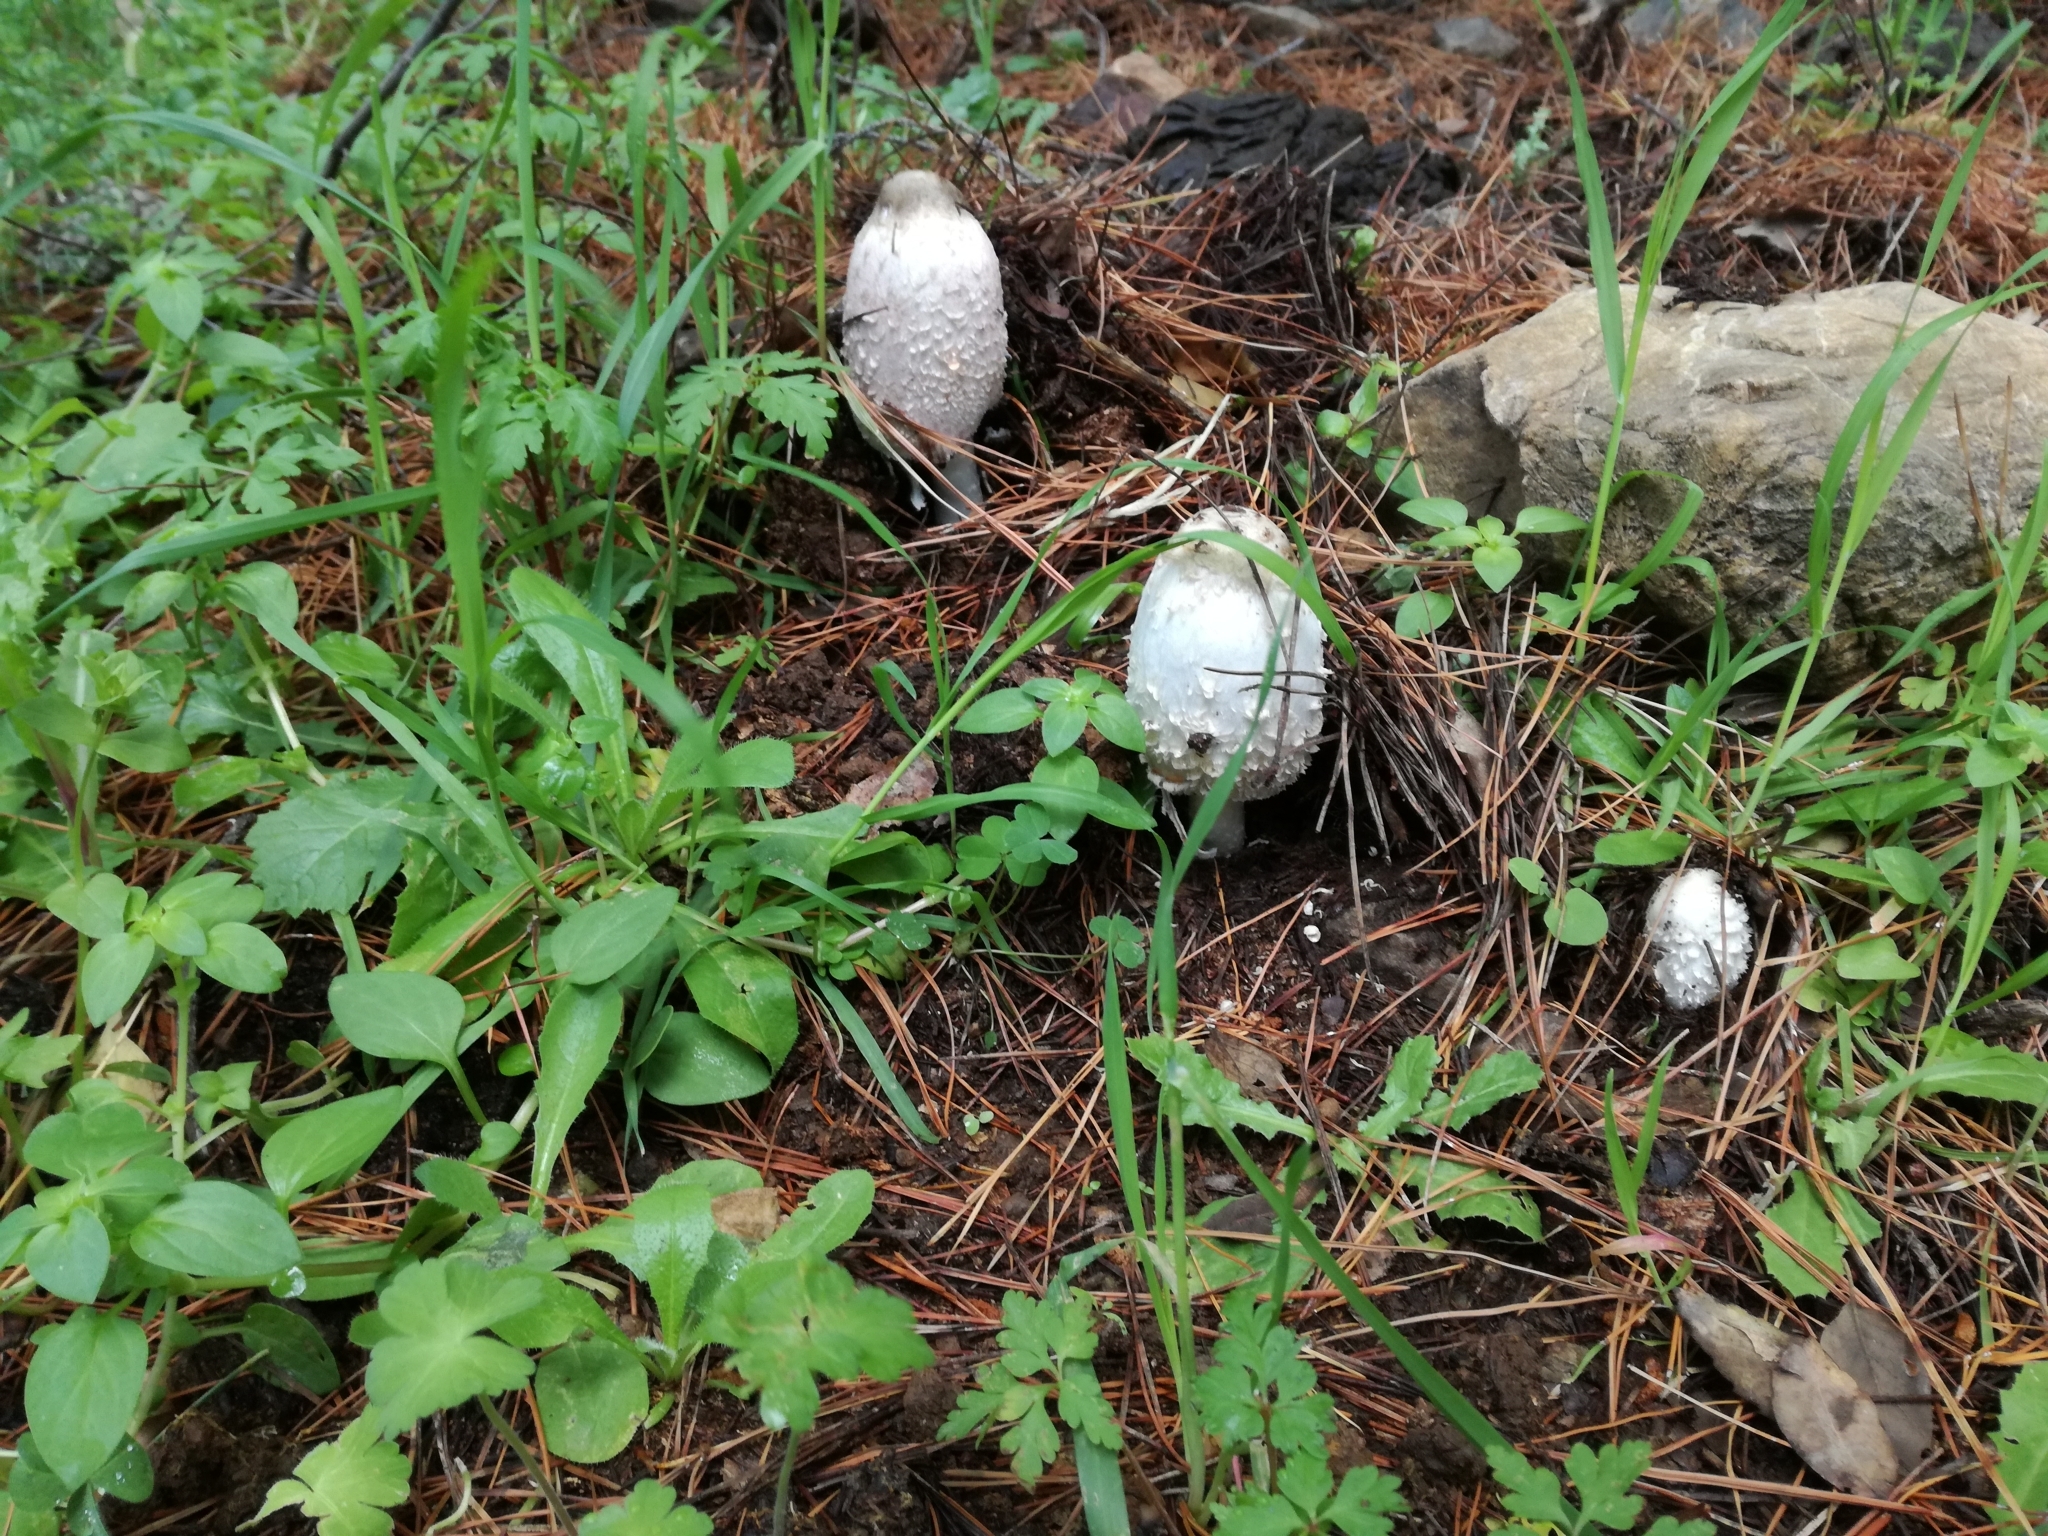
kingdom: Fungi
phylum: Basidiomycota
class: Agaricomycetes
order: Agaricales
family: Agaricaceae
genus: Coprinus
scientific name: Coprinus comatus
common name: Lawyer's wig
